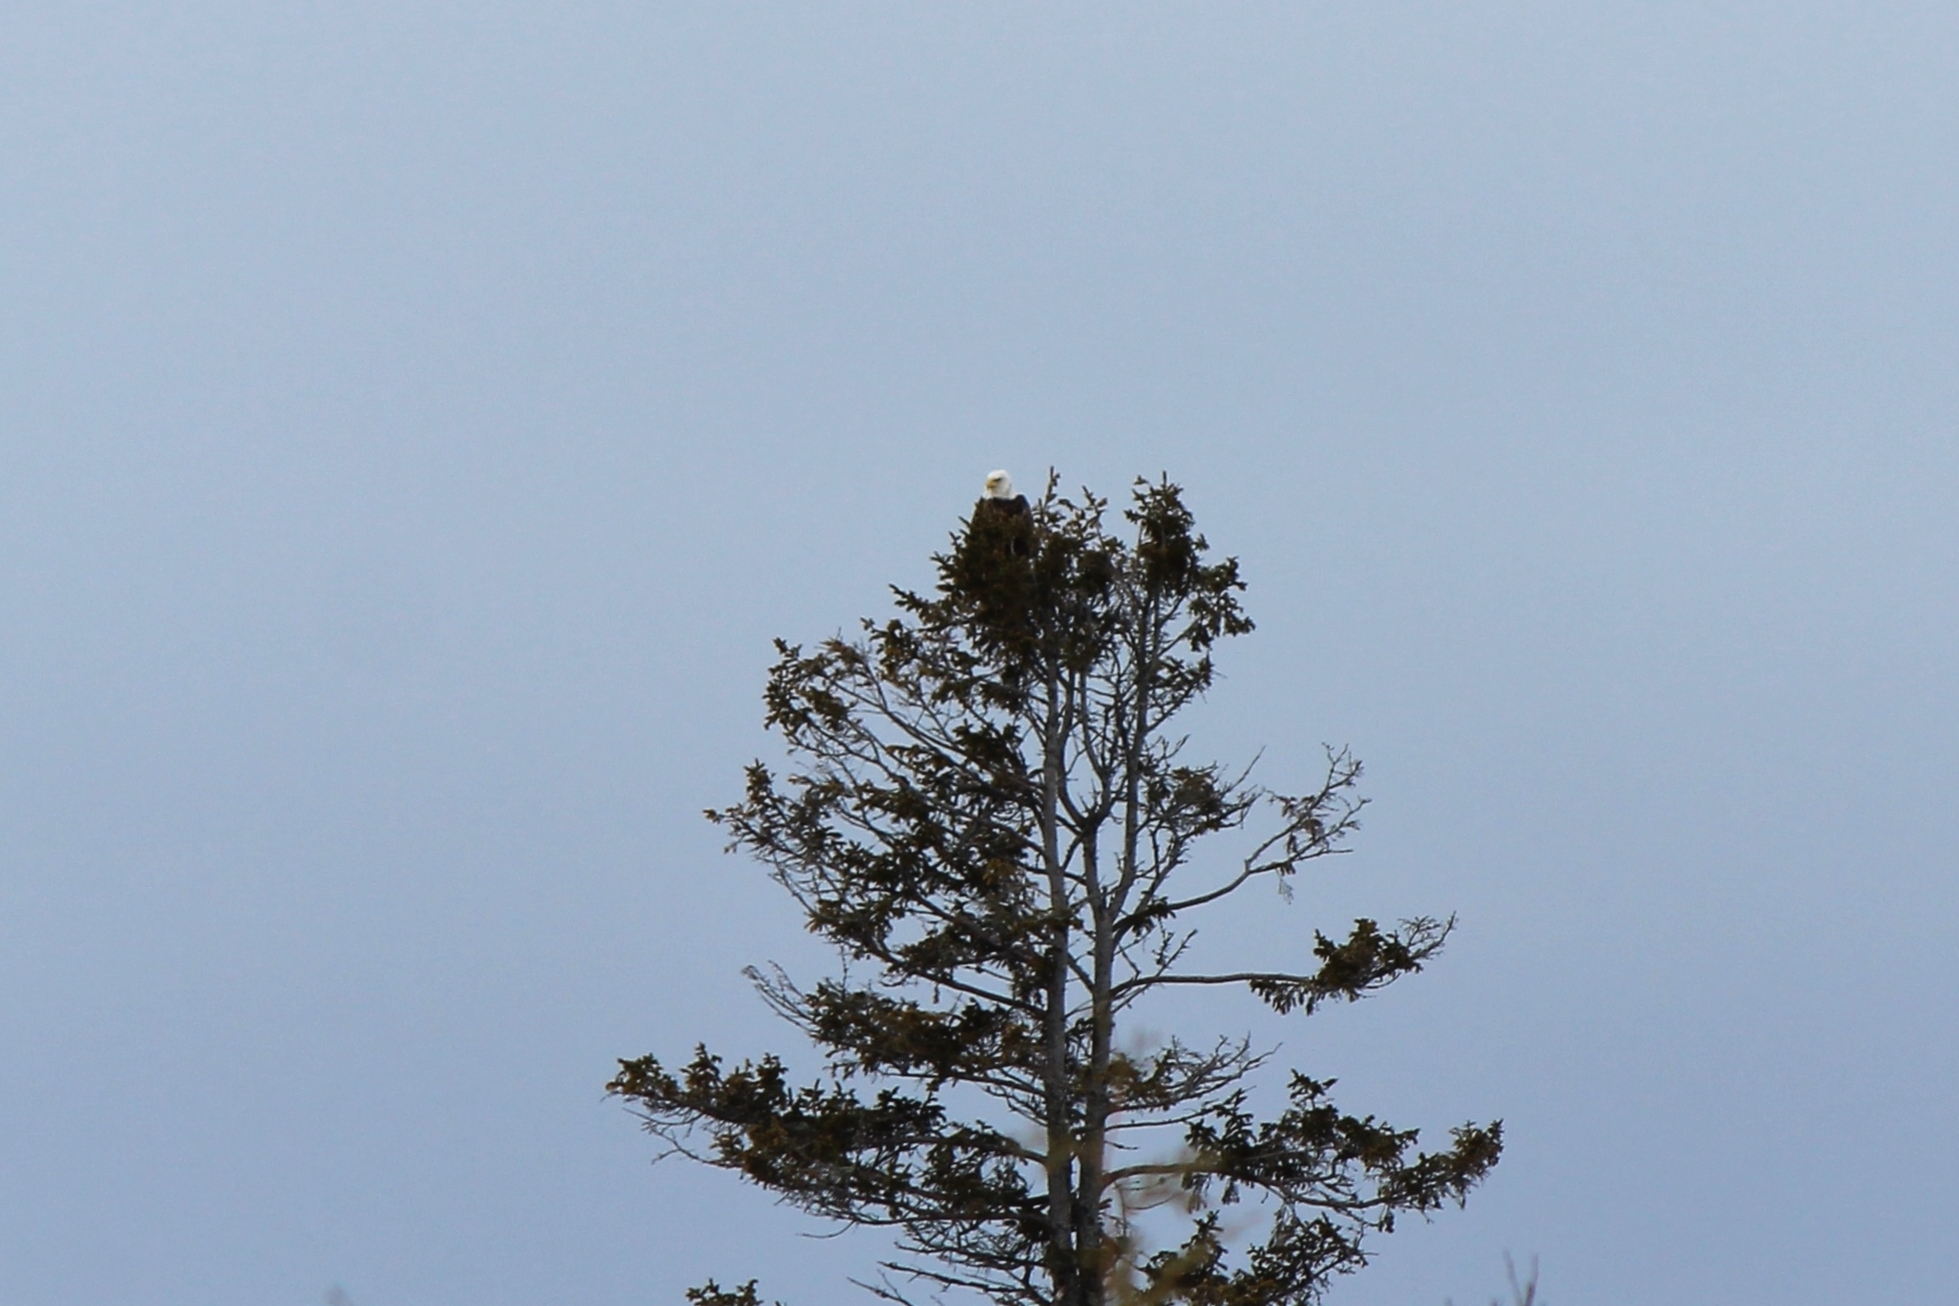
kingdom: Animalia
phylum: Chordata
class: Aves
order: Accipitriformes
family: Accipitridae
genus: Haliaeetus
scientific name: Haliaeetus leucocephalus
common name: Bald eagle
